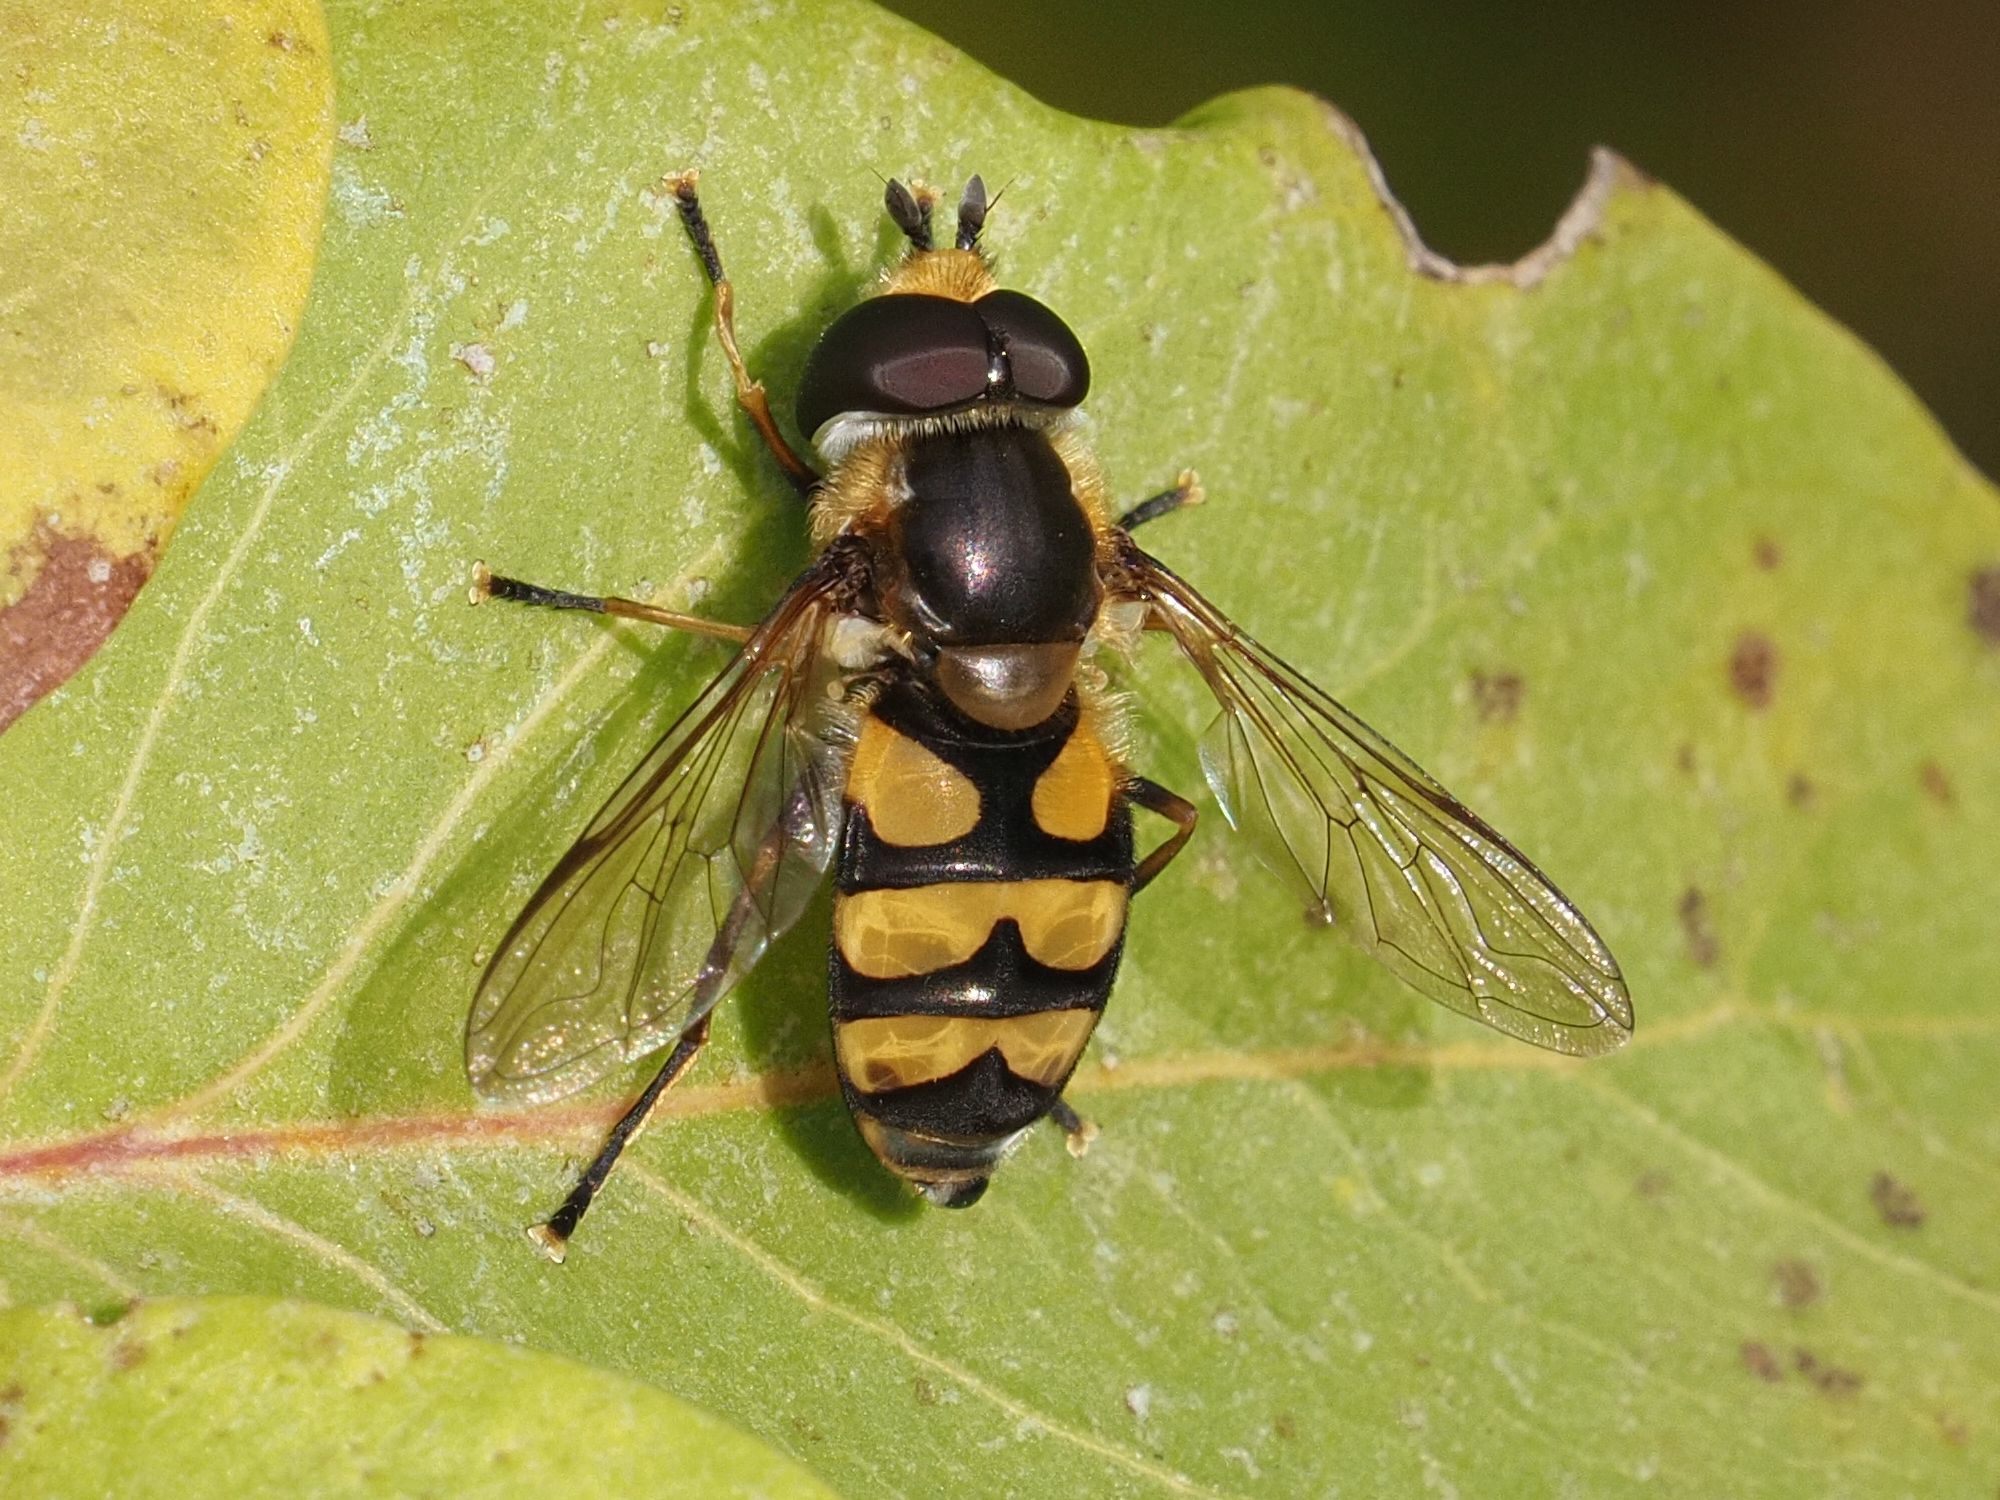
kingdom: Animalia
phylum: Arthropoda
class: Insecta
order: Diptera
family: Syrphidae
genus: Didea
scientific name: Didea fasciata
